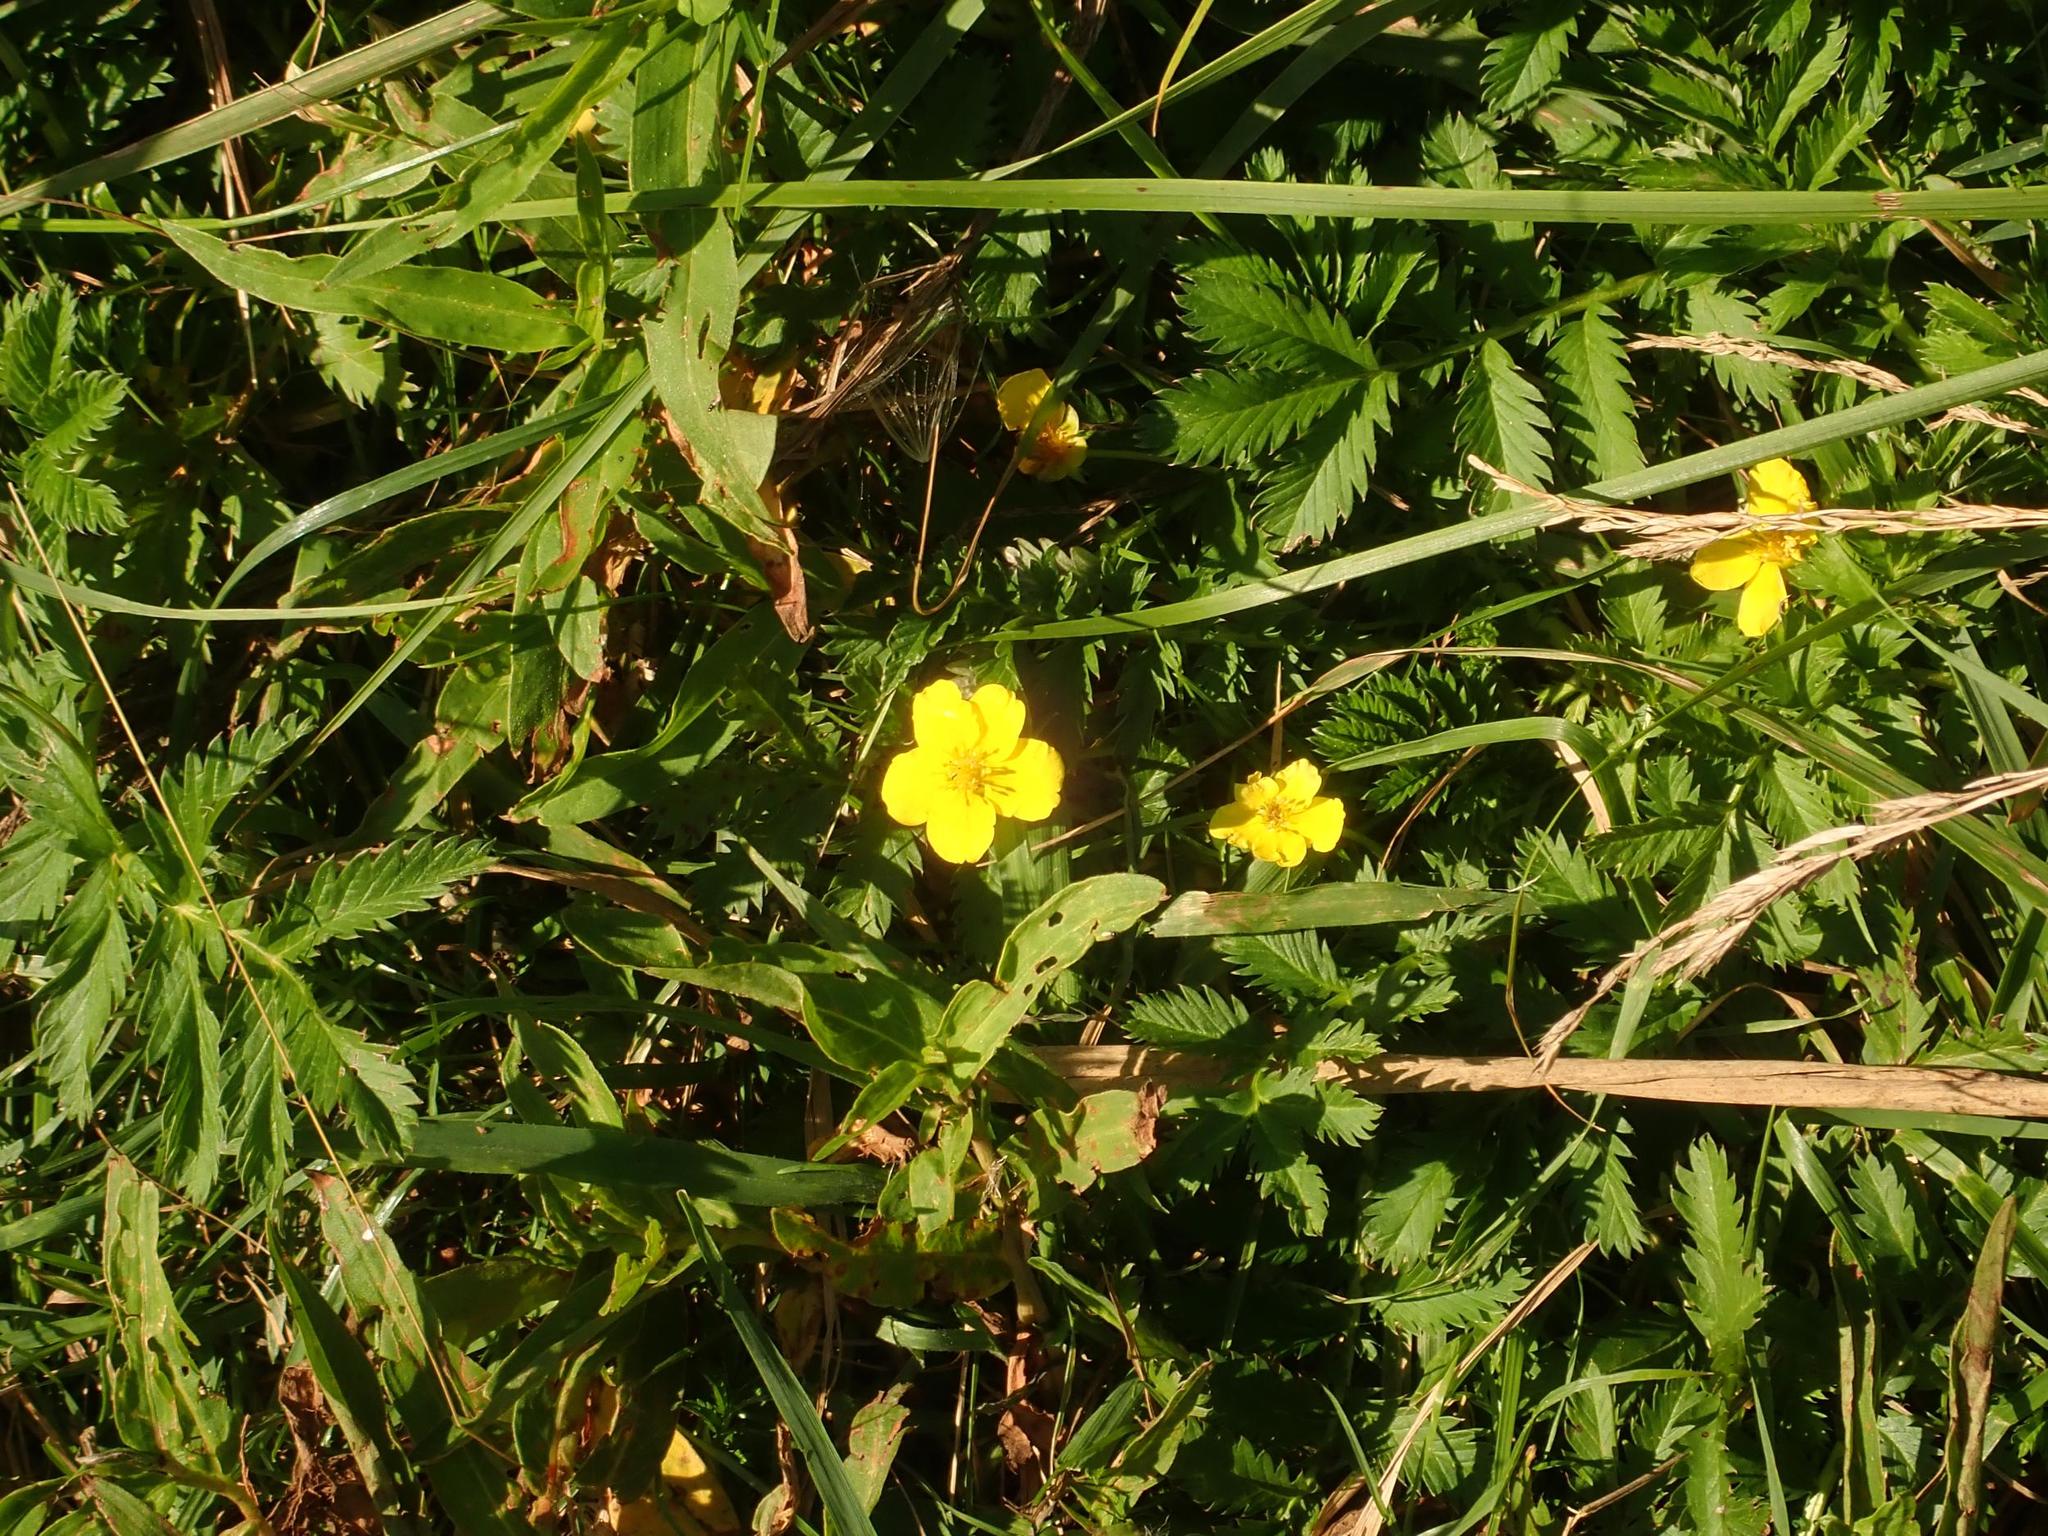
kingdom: Plantae
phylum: Tracheophyta
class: Magnoliopsida
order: Rosales
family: Rosaceae
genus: Argentina
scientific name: Argentina anserina
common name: Common silverweed
